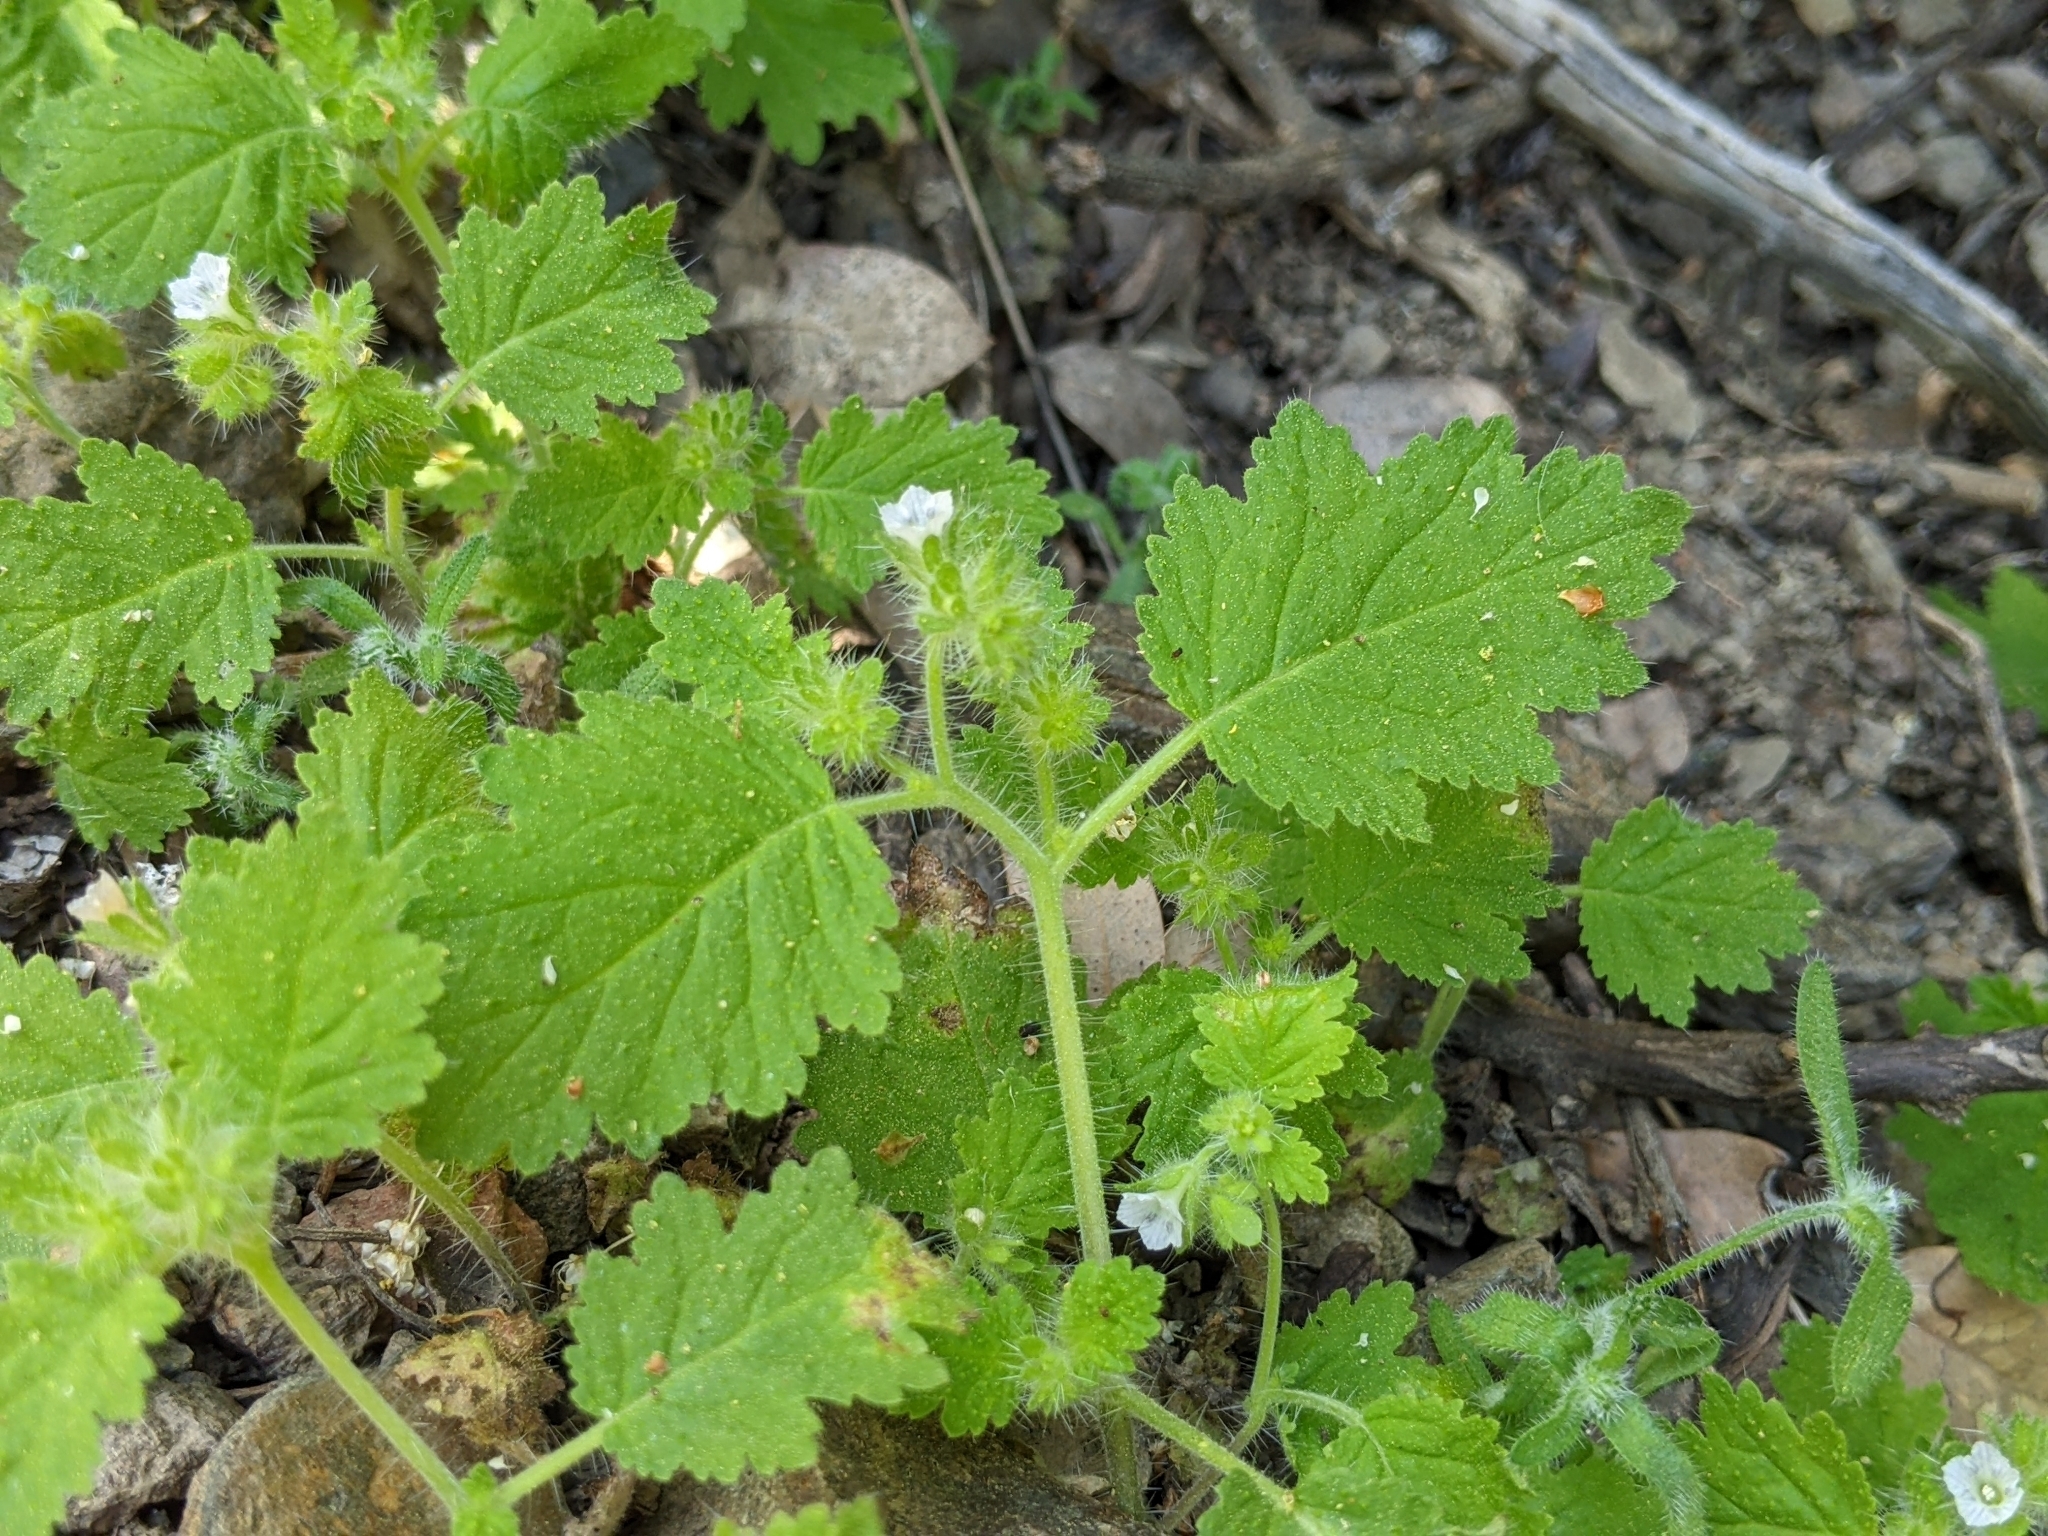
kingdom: Plantae
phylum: Tracheophyta
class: Magnoliopsida
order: Boraginales
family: Hydrophyllaceae
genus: Phacelia
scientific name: Phacelia rattanii
